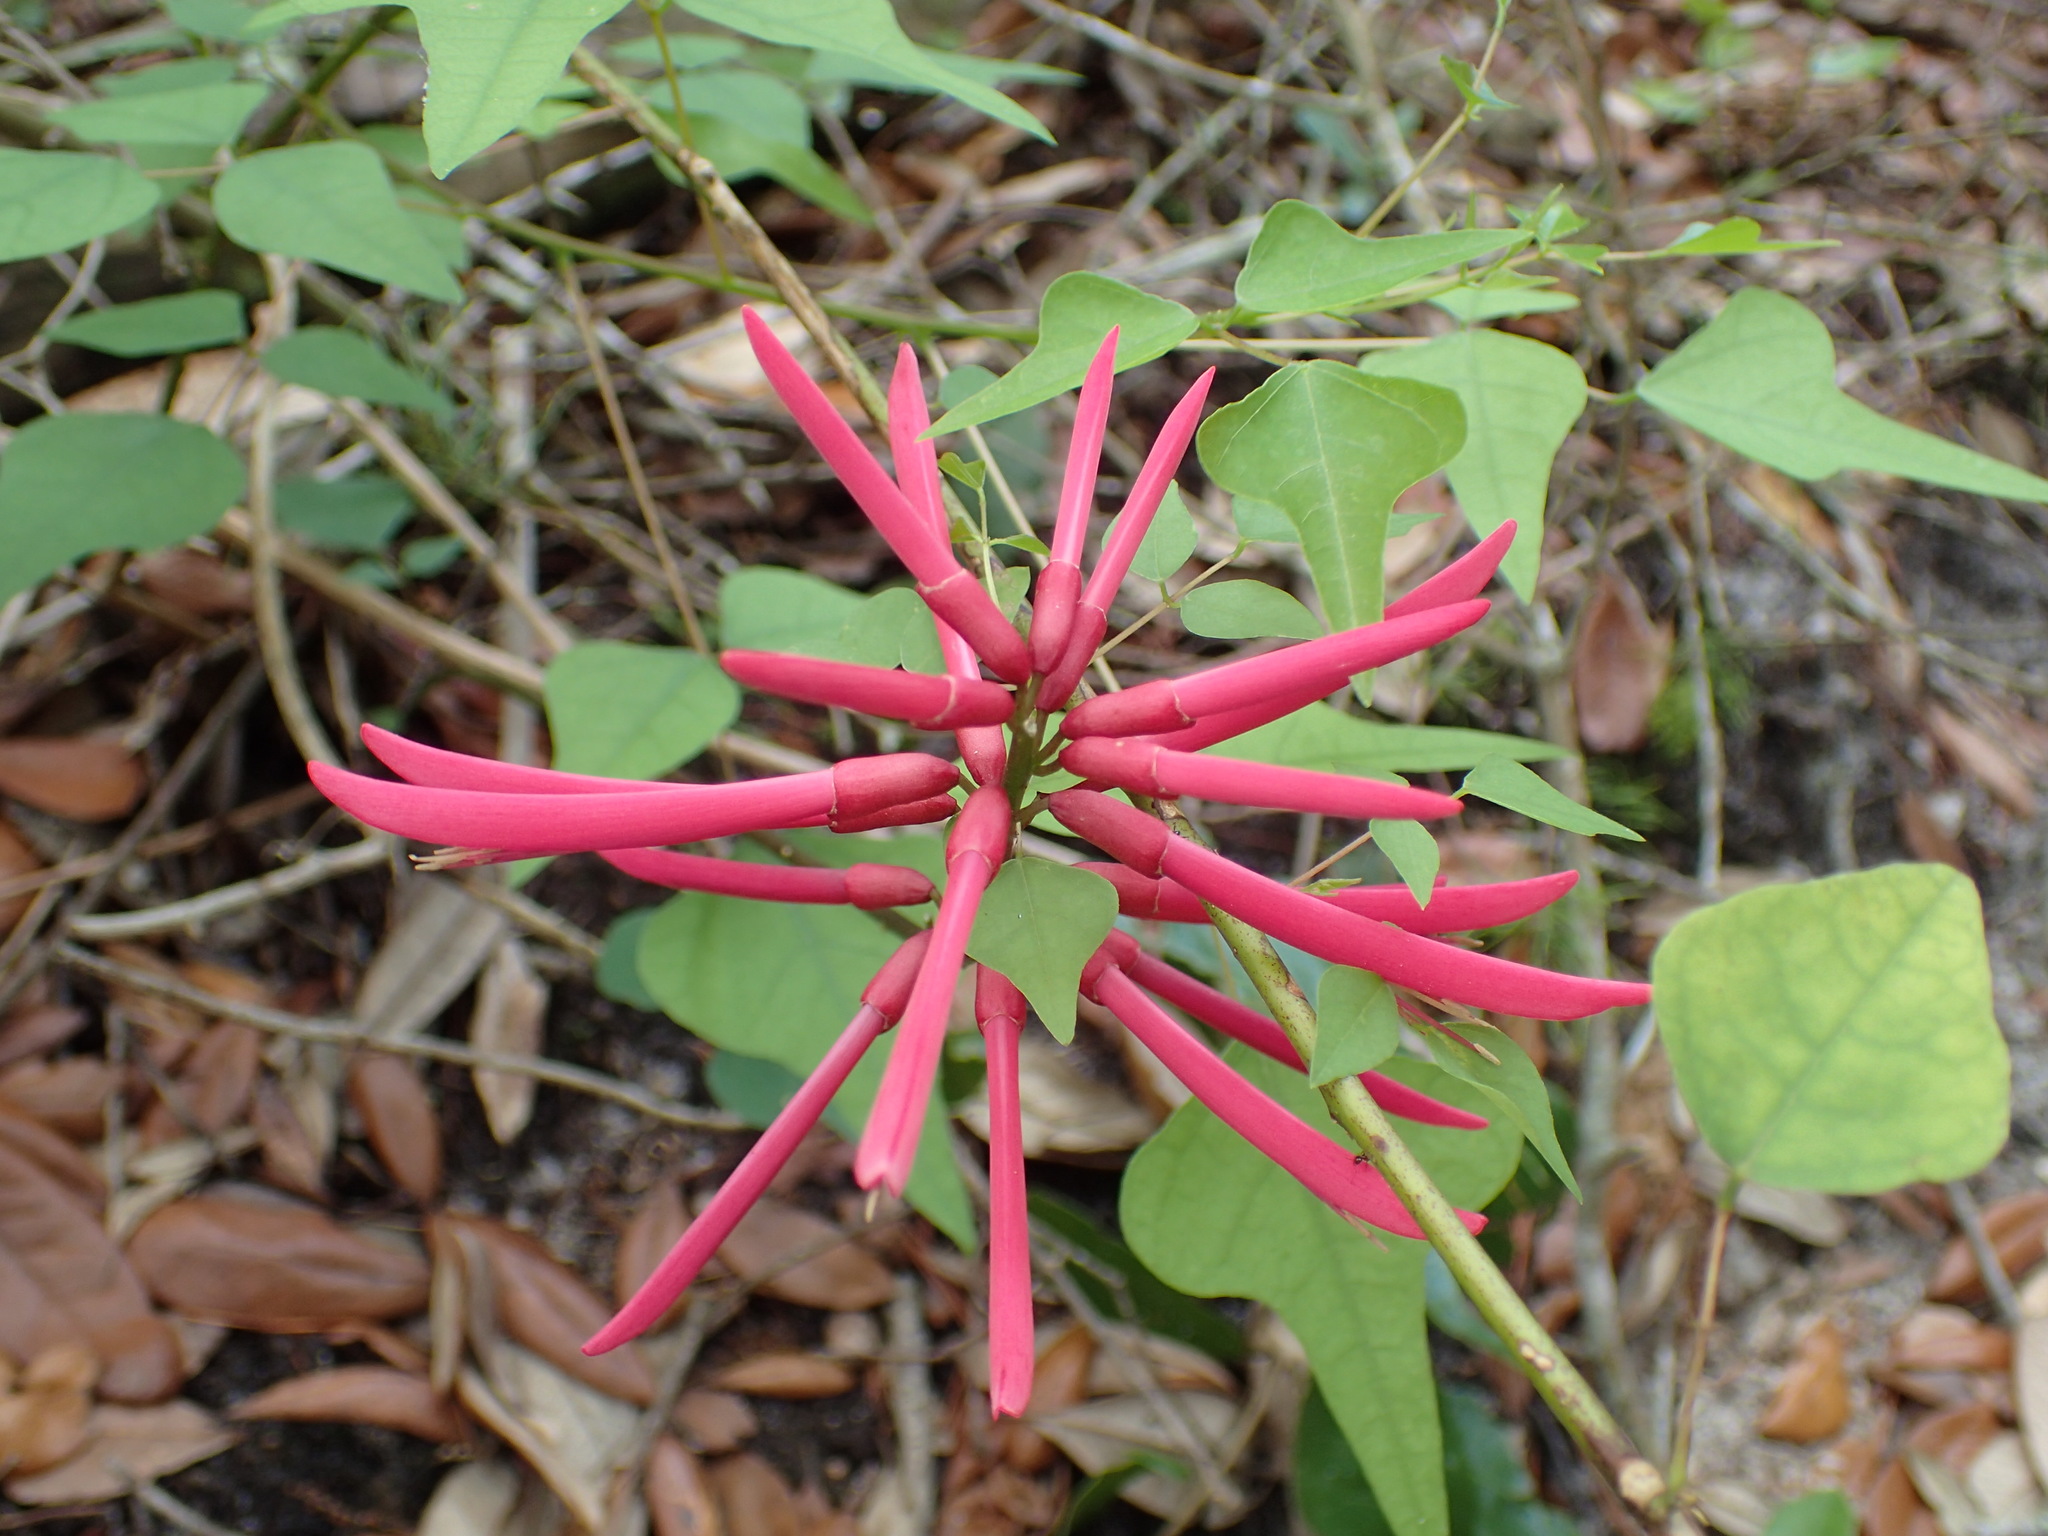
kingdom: Plantae
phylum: Tracheophyta
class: Magnoliopsida
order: Fabales
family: Fabaceae
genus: Erythrina
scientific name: Erythrina herbacea
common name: Coral-bean
